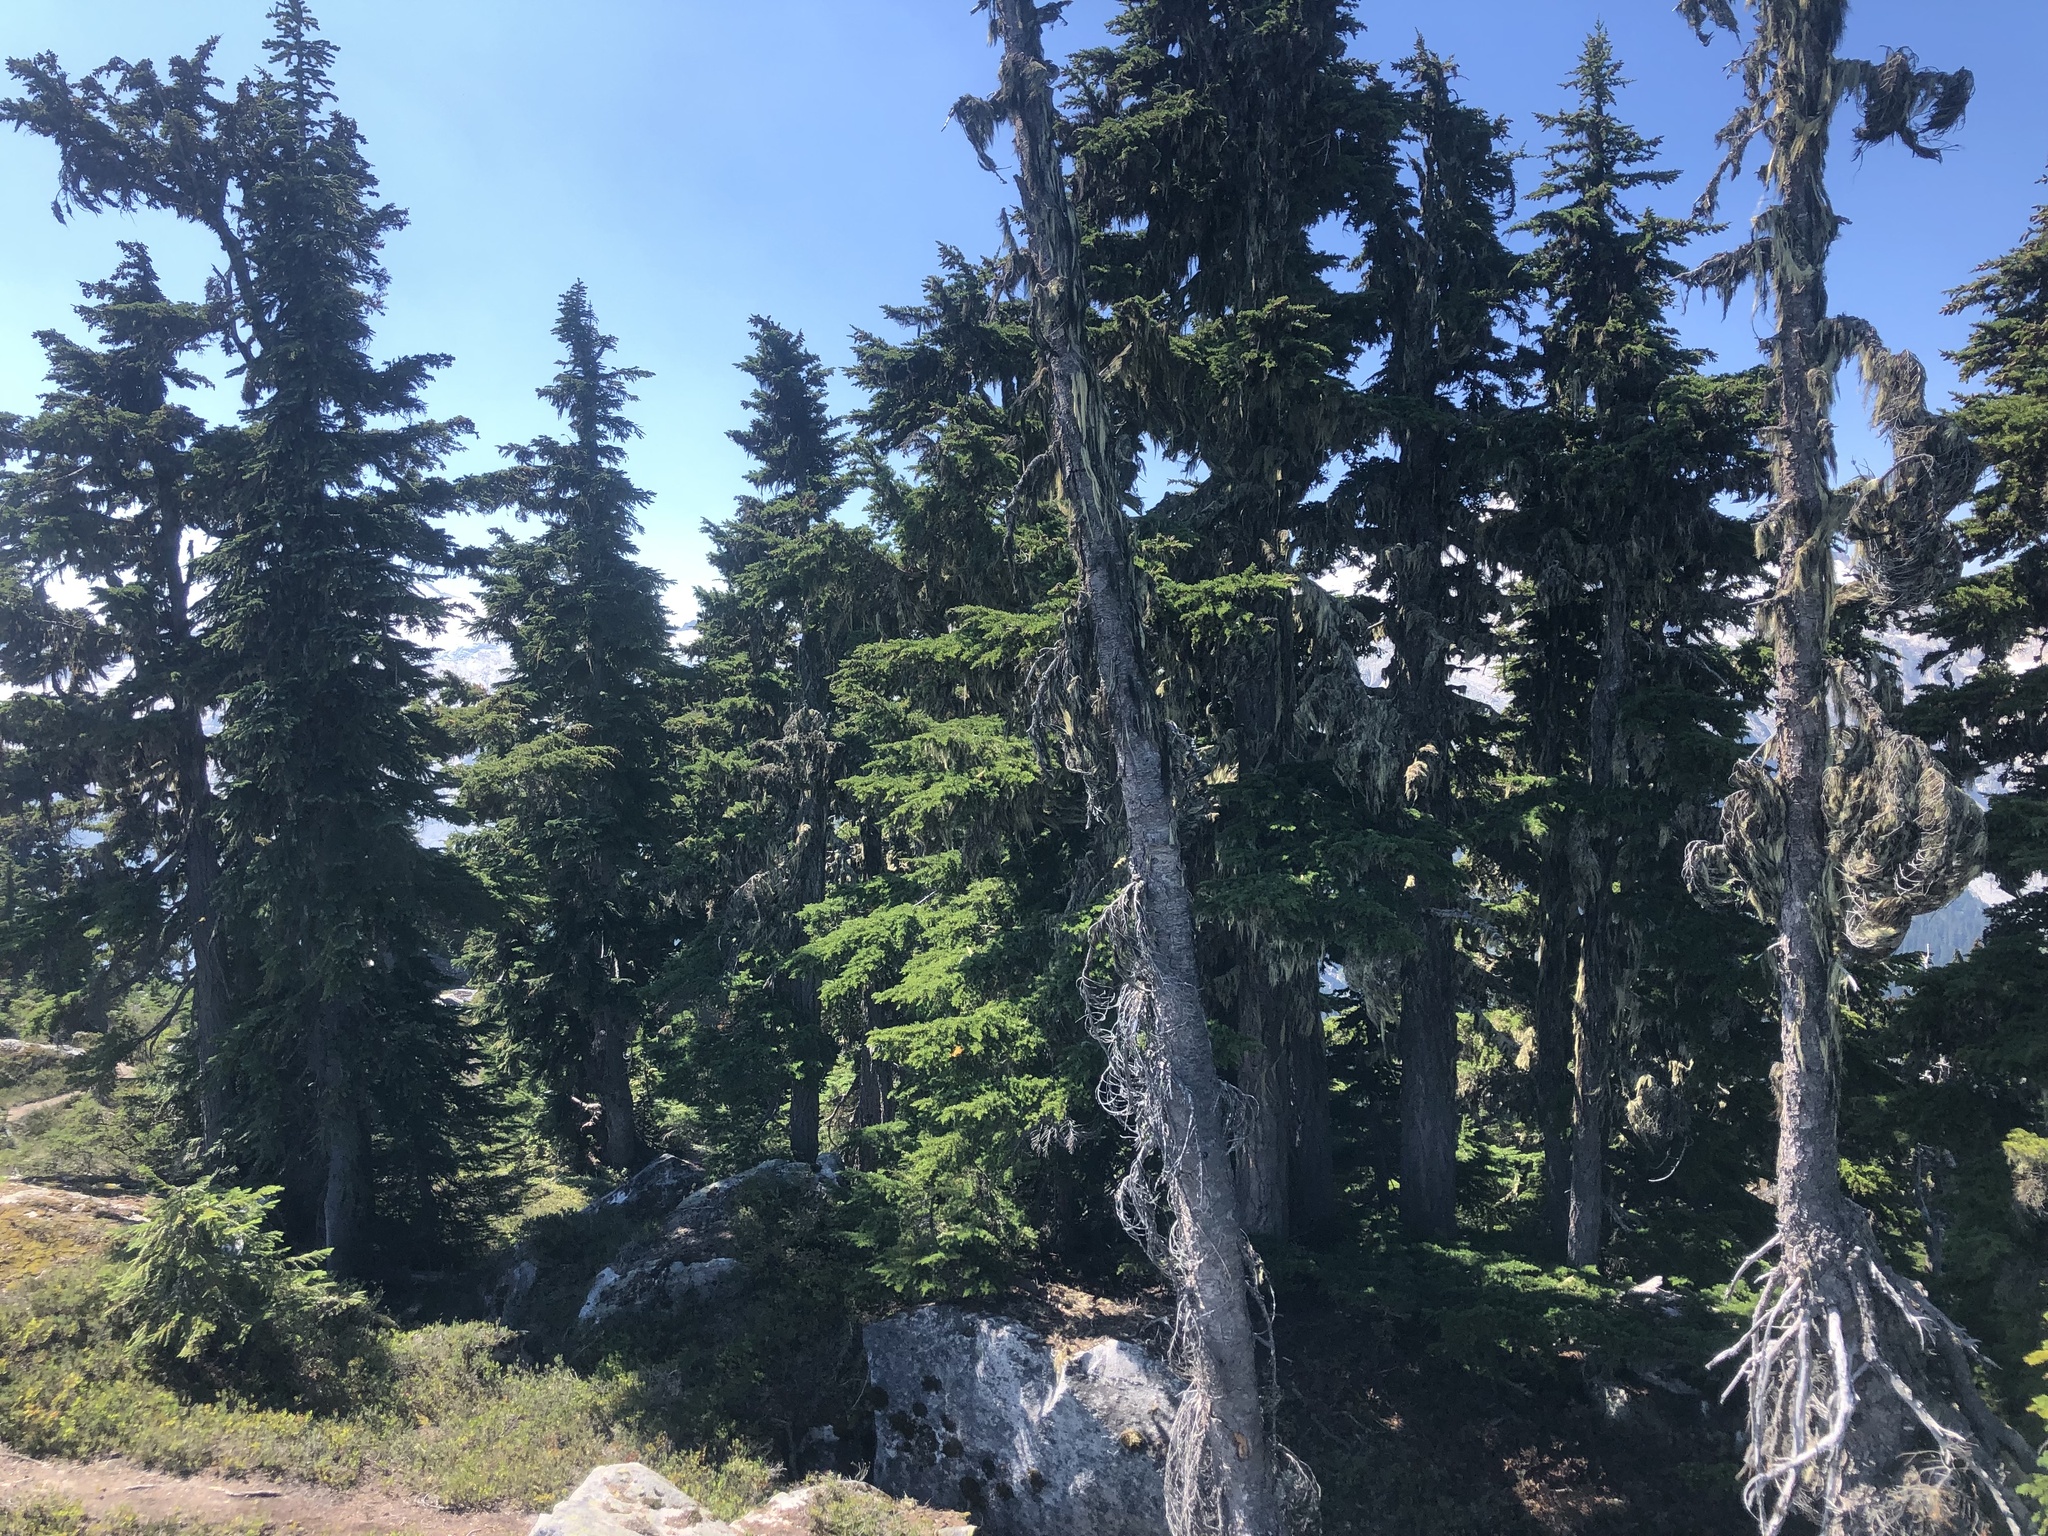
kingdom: Plantae
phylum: Tracheophyta
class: Pinopsida
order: Pinales
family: Pinaceae
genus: Tsuga
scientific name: Tsuga mertensiana
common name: Mountain hemlock
